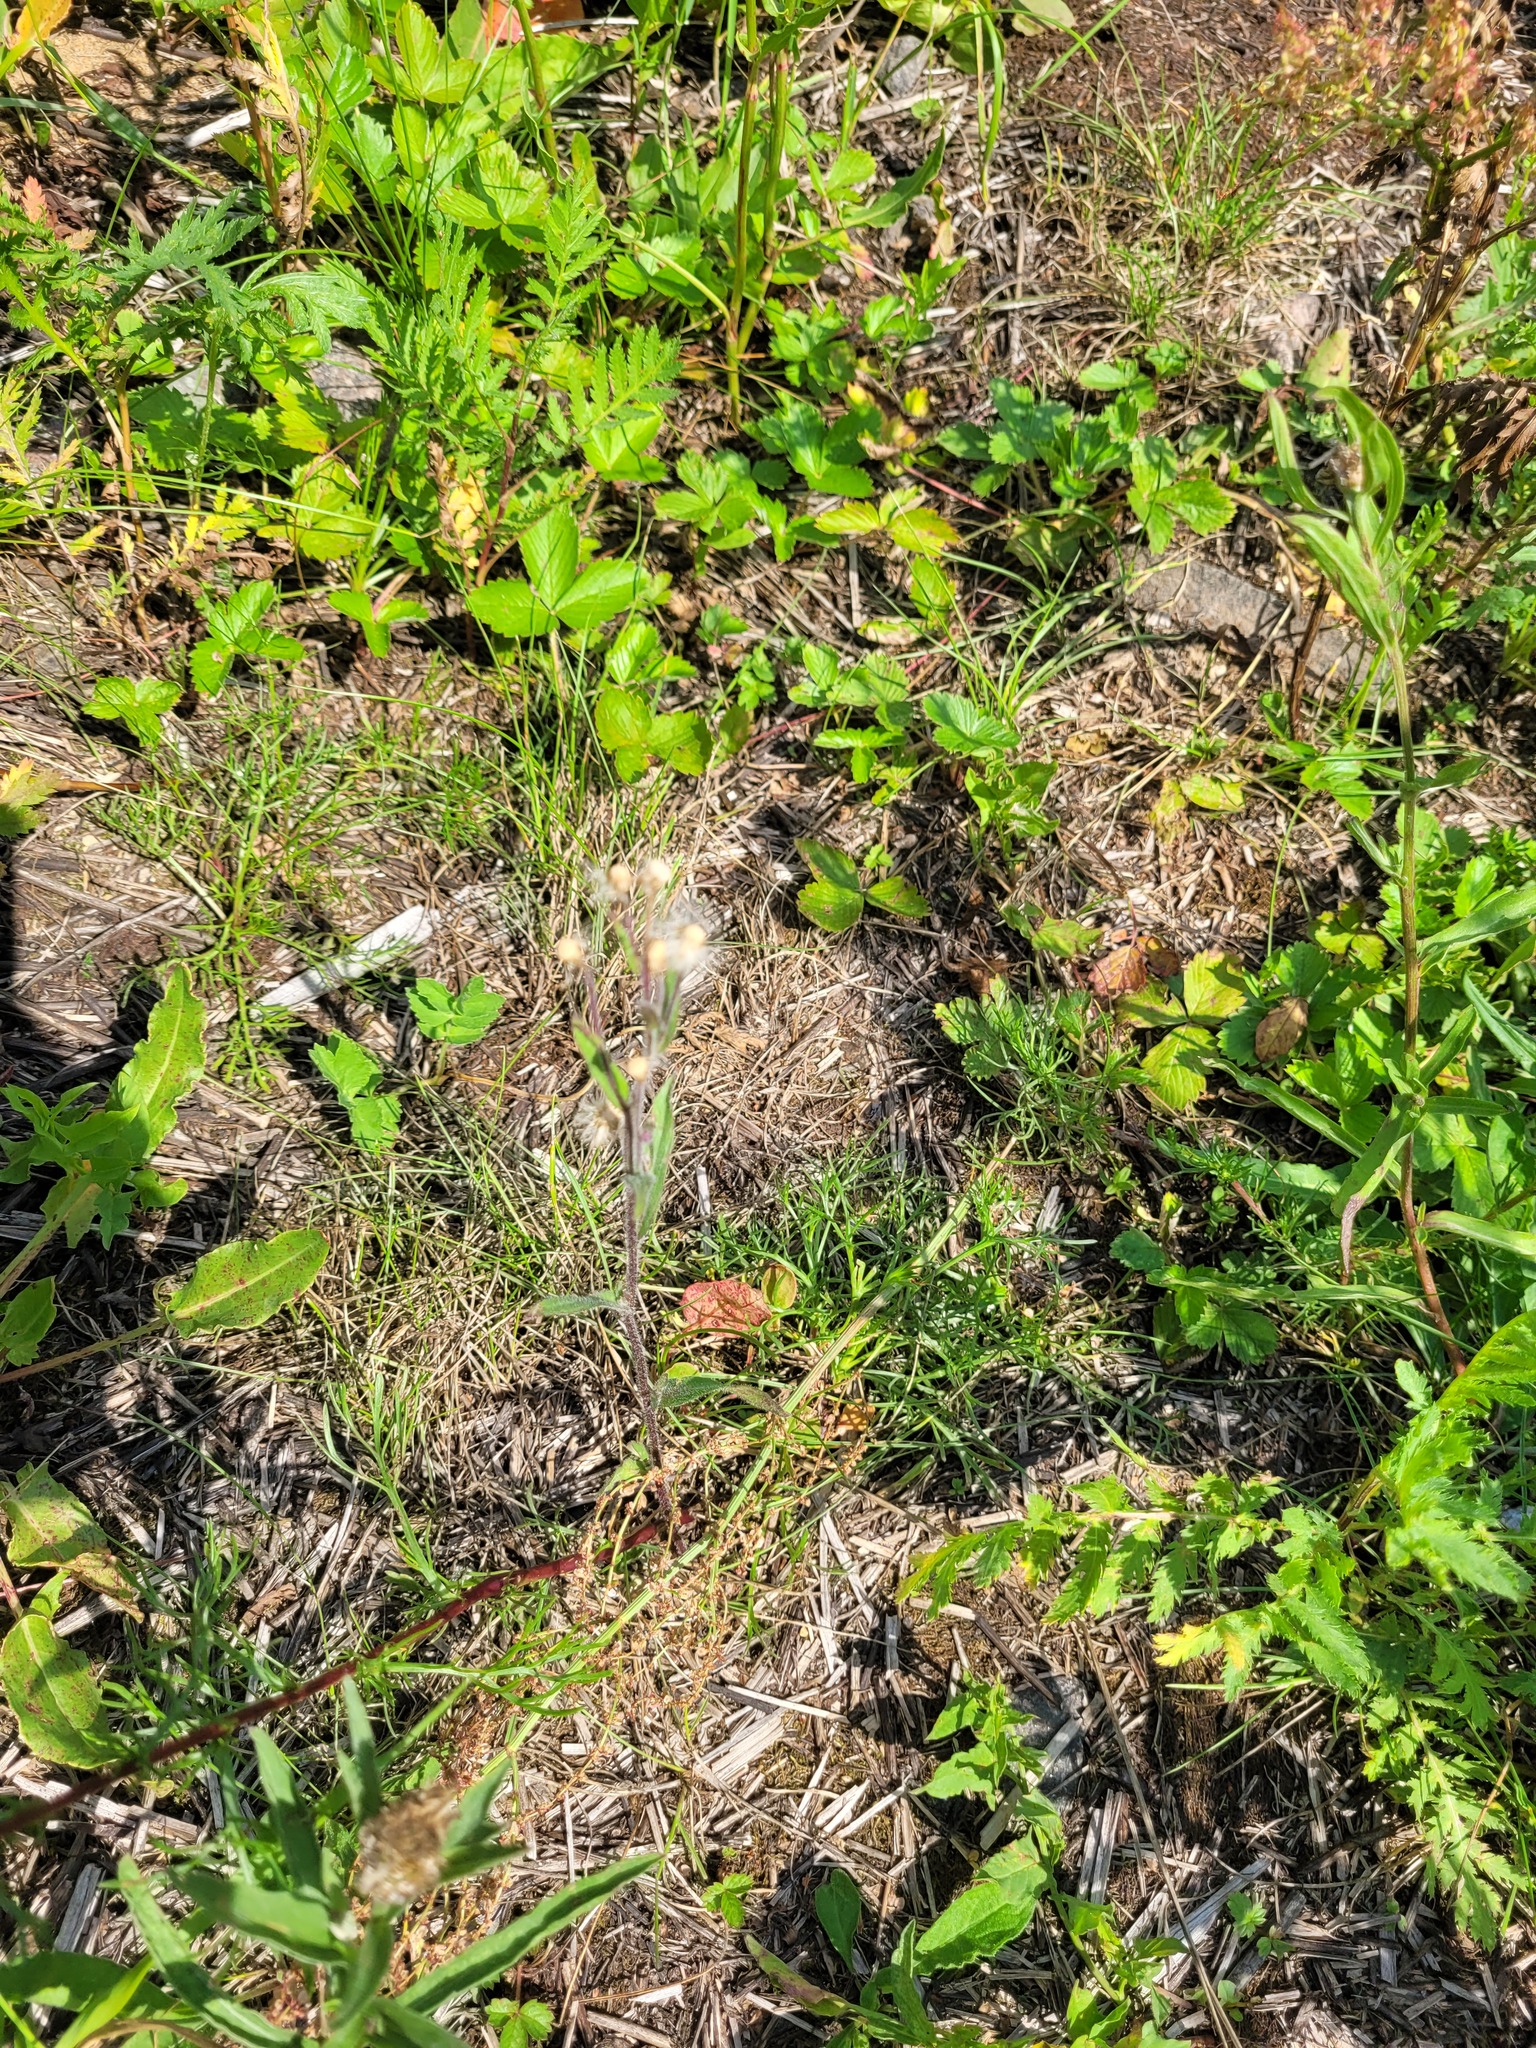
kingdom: Plantae
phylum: Tracheophyta
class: Magnoliopsida
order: Asterales
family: Asteraceae
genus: Erigeron
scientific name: Erigeron acris
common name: Blue fleabane
